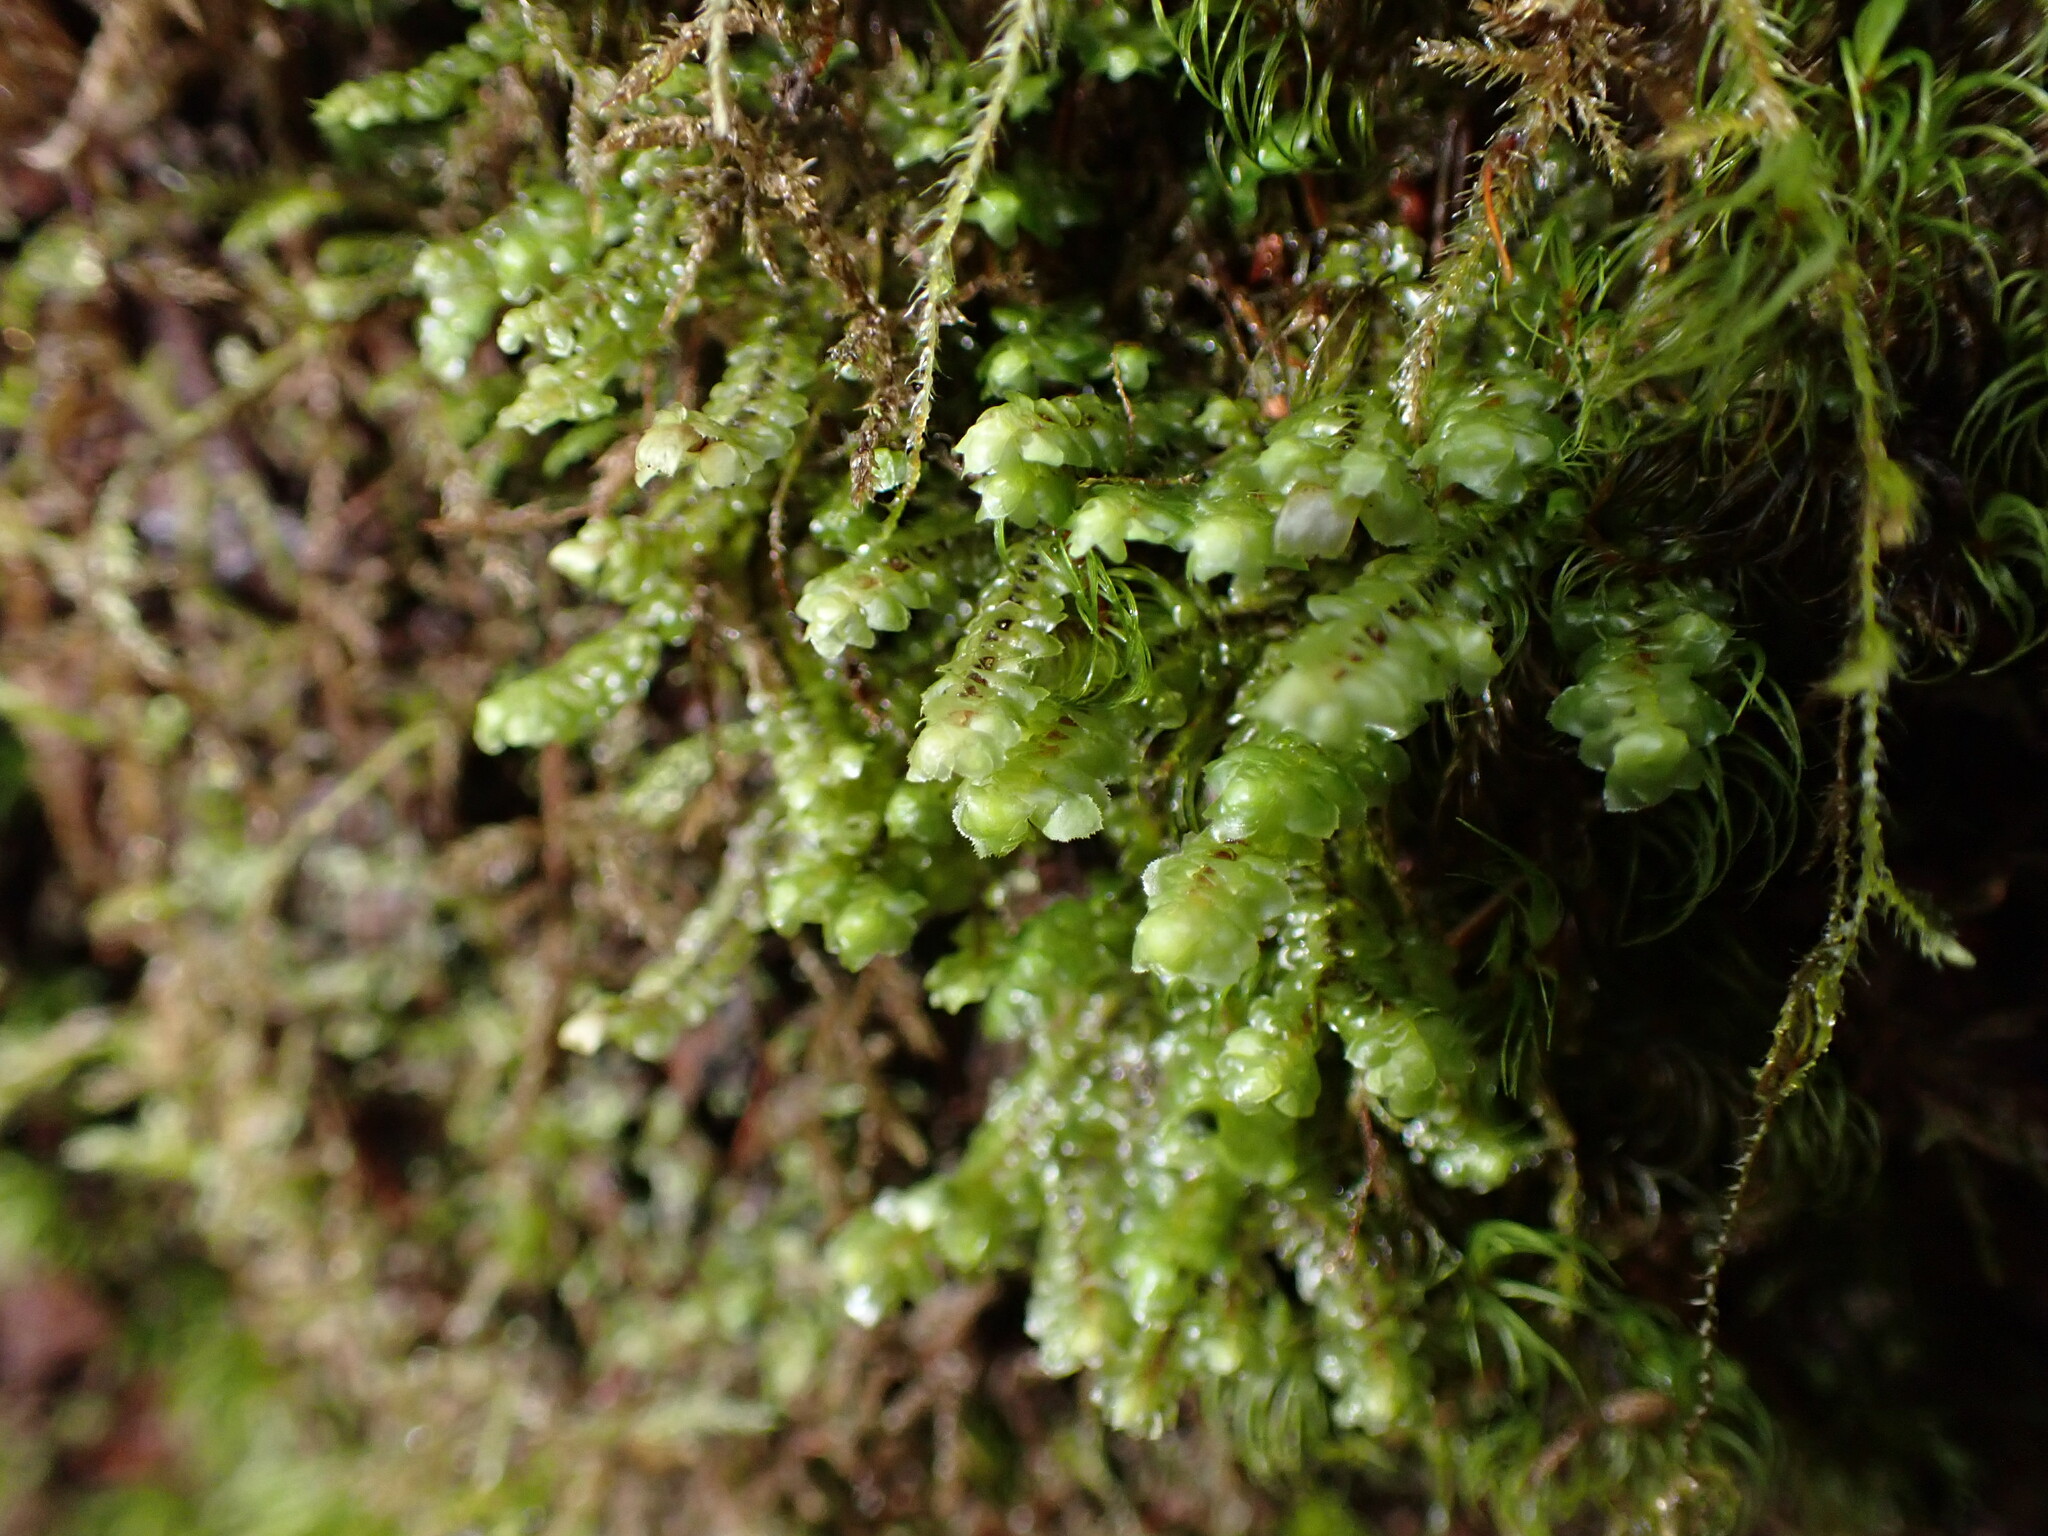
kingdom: Plantae
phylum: Marchantiophyta
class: Jungermanniopsida
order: Jungermanniales
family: Scapaniaceae
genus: Scapania
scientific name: Scapania bolanderi
